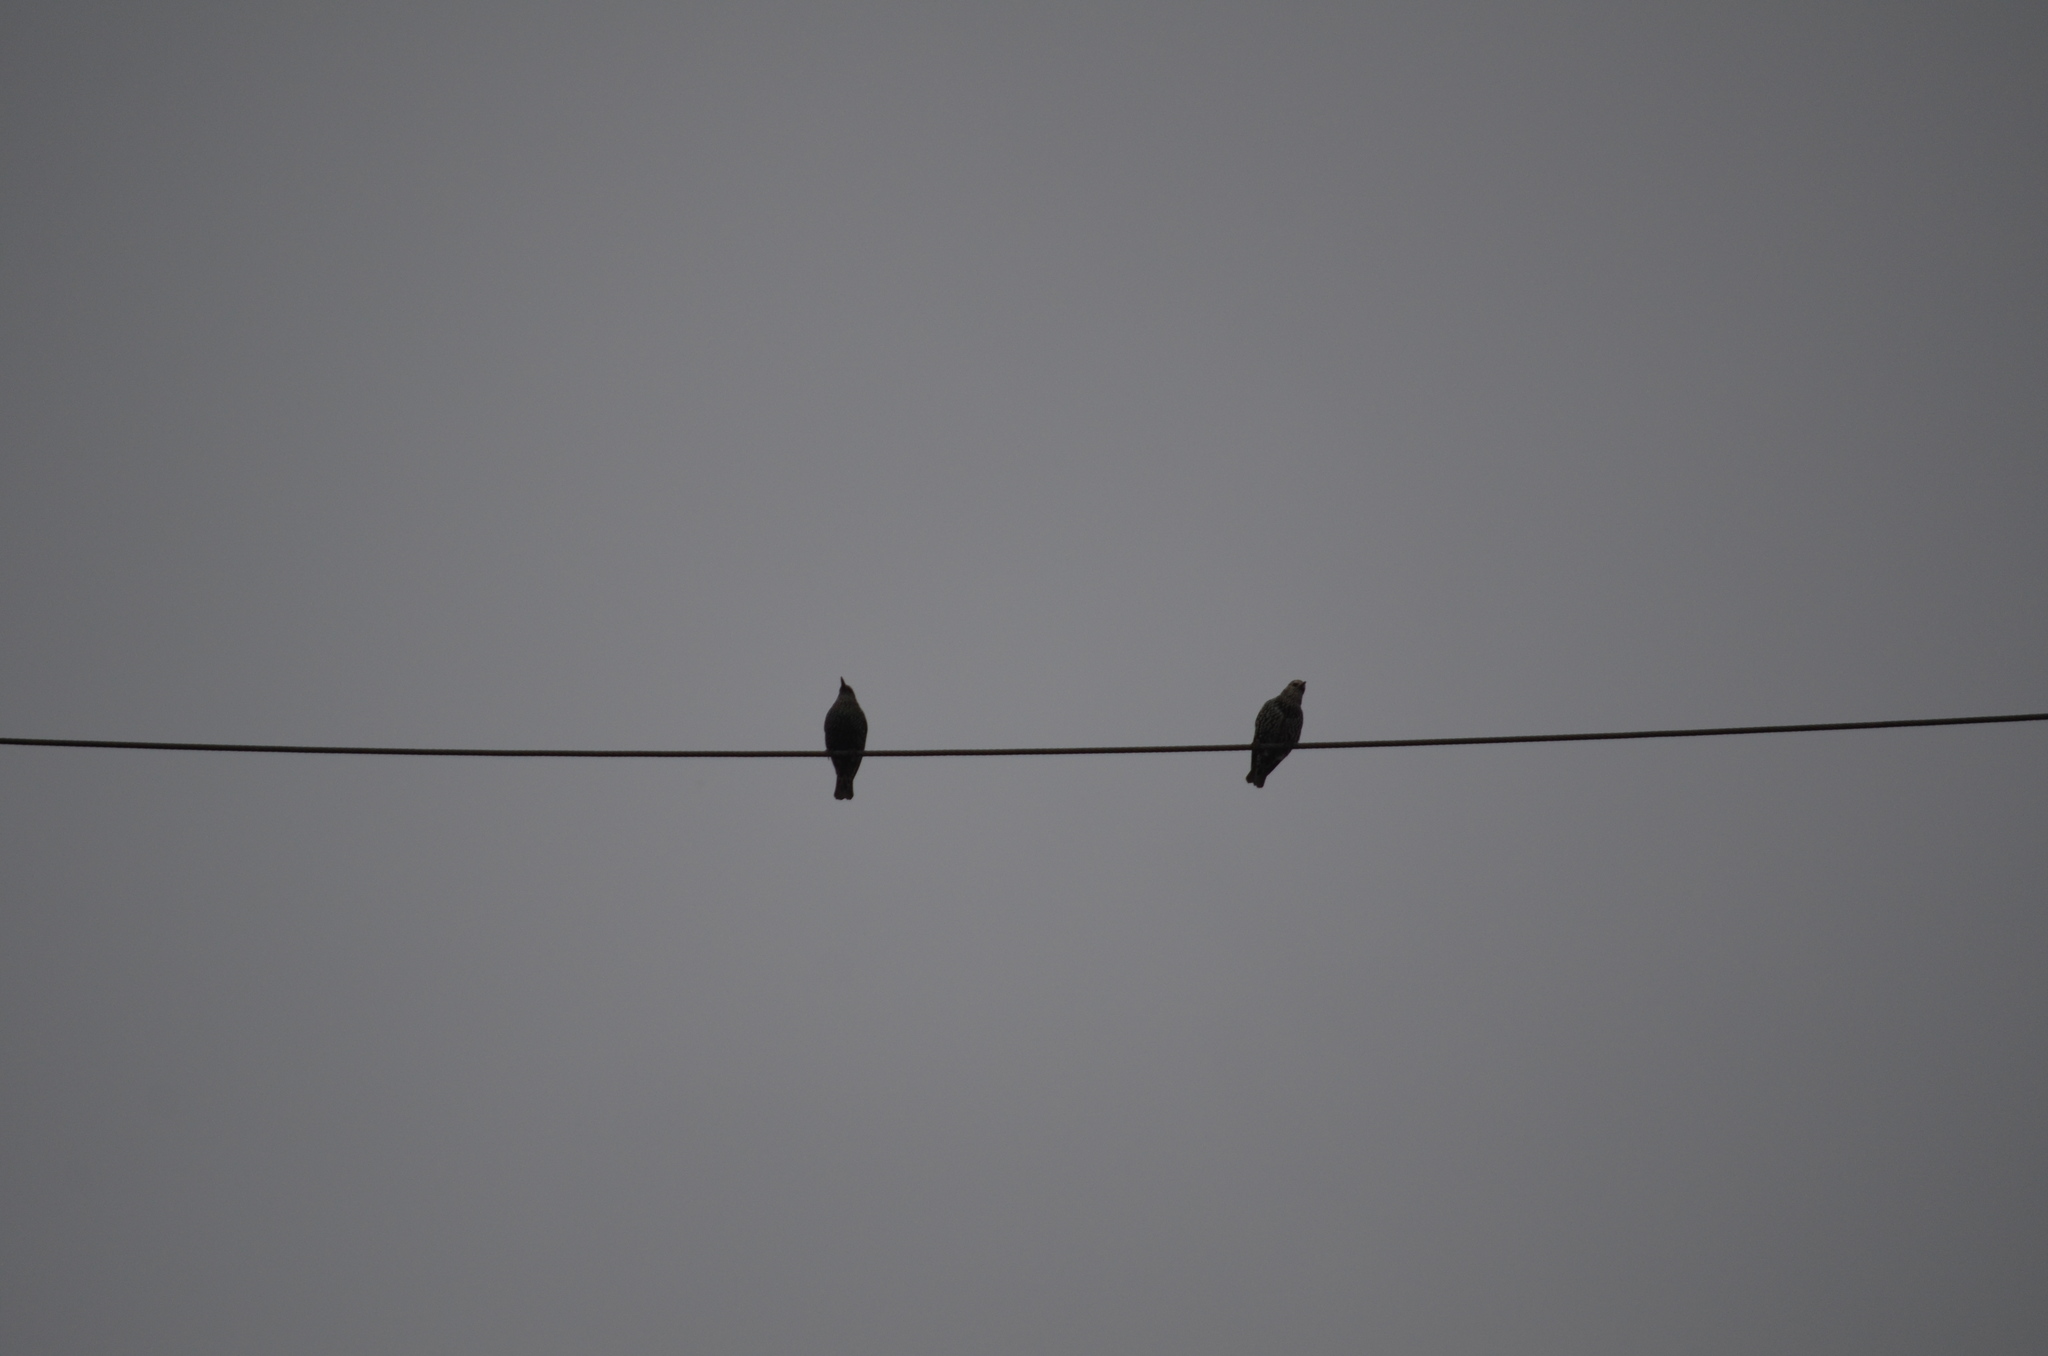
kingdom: Animalia
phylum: Chordata
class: Aves
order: Passeriformes
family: Sturnidae
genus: Sturnus
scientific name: Sturnus vulgaris
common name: Common starling
